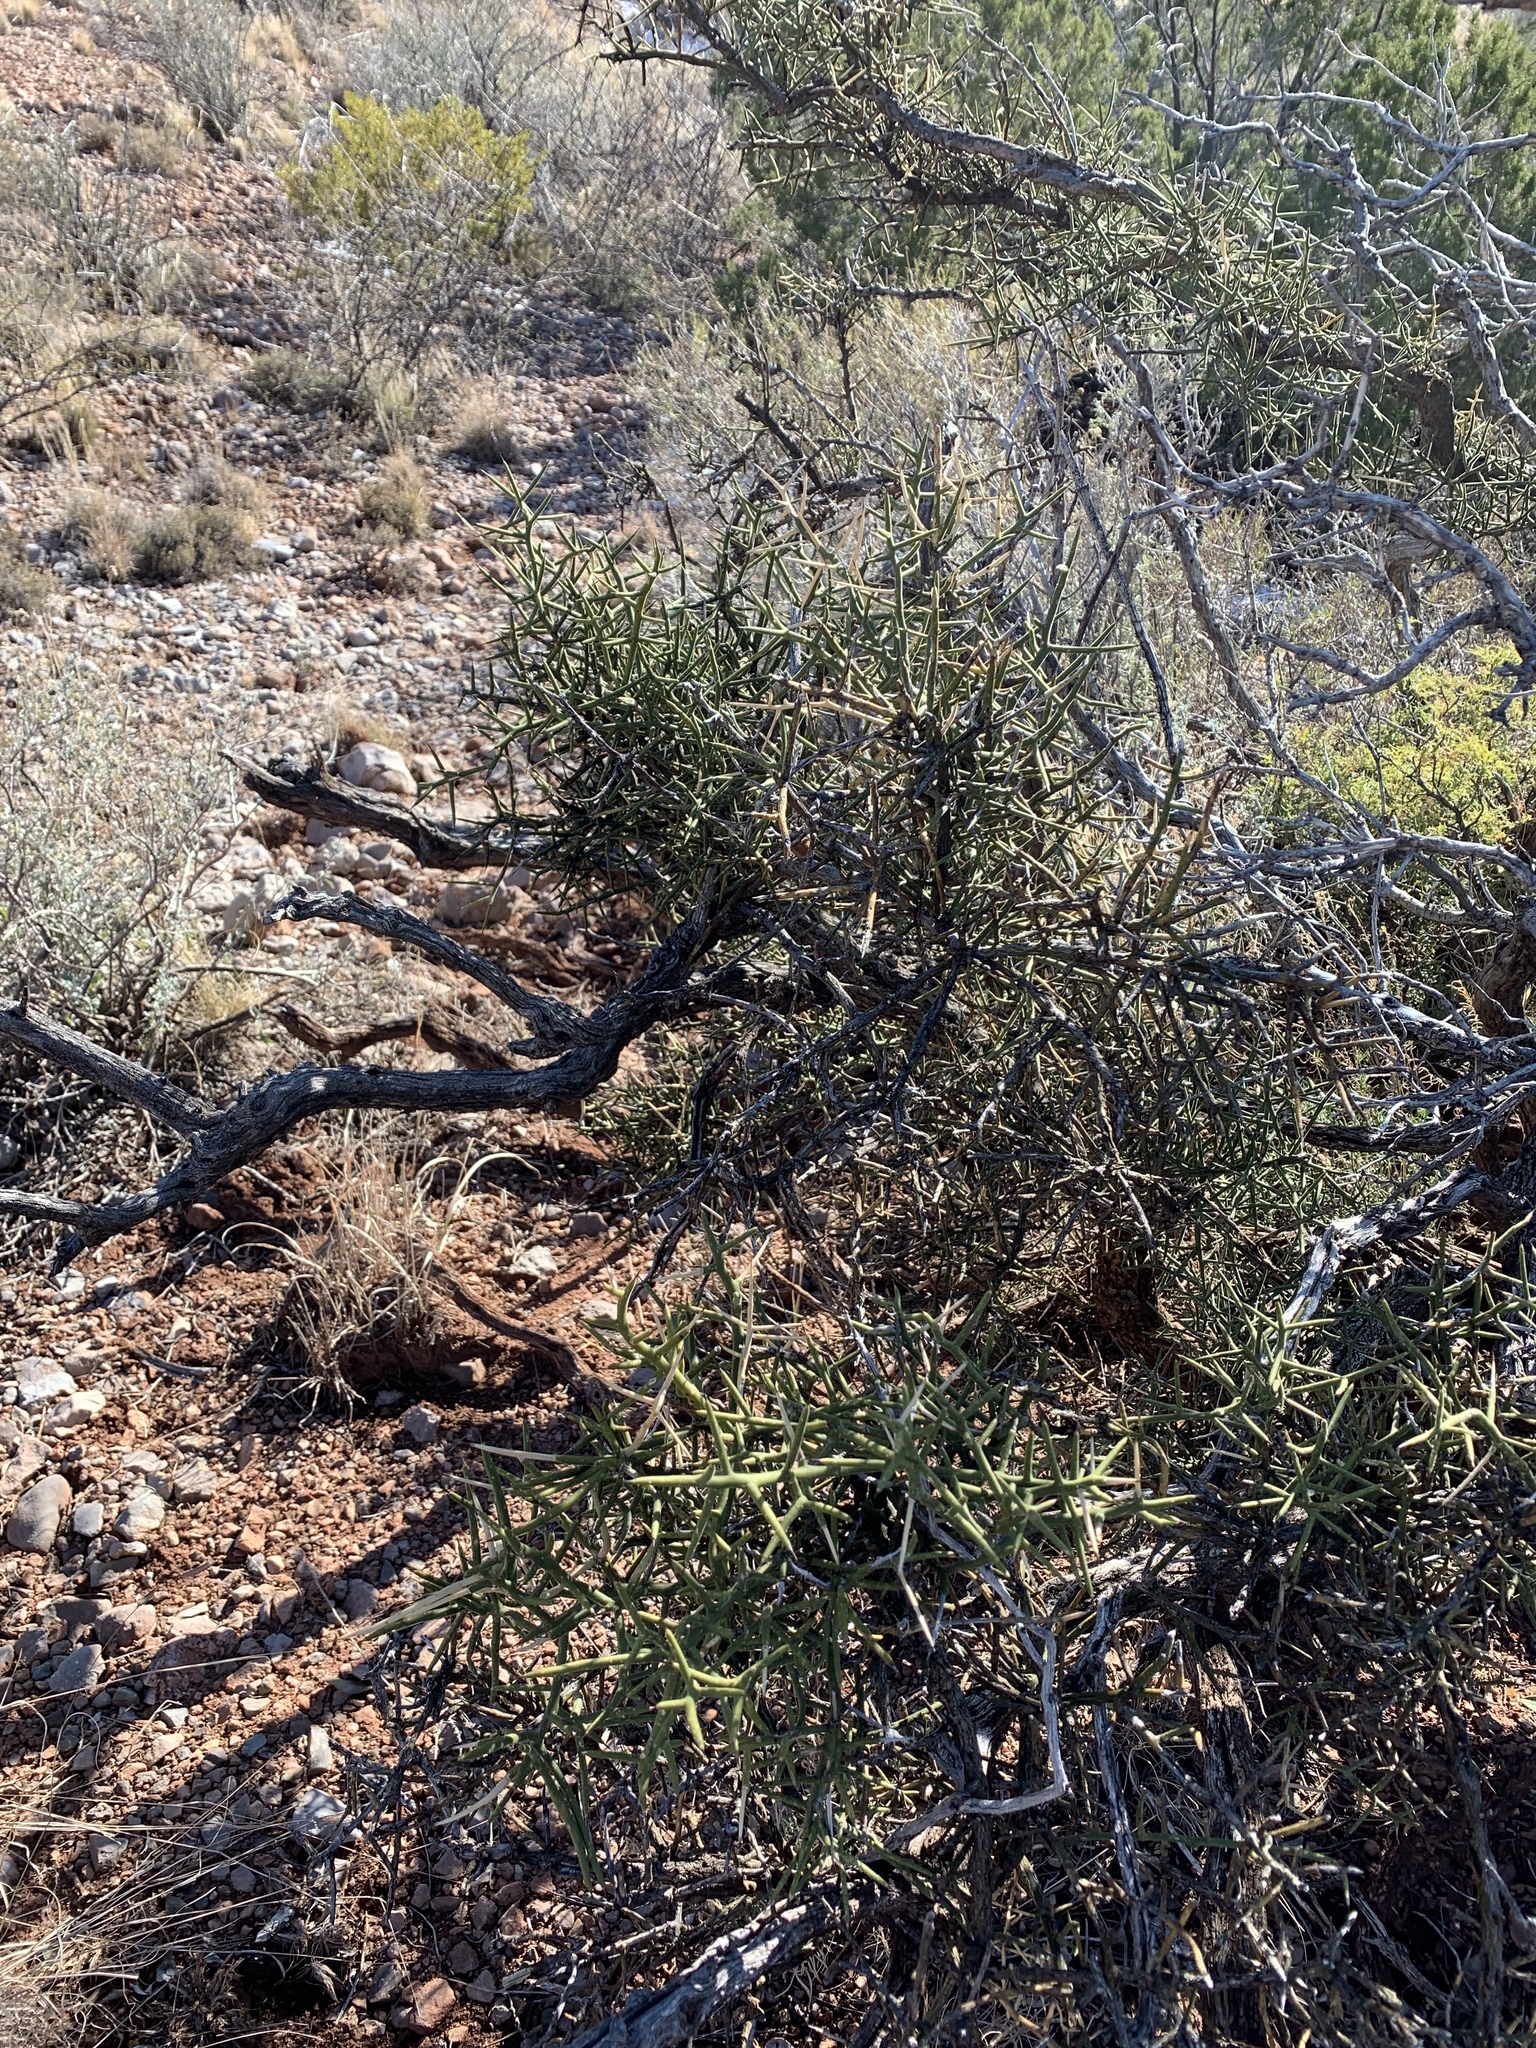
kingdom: Plantae
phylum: Tracheophyta
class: Magnoliopsida
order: Brassicales
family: Koeberliniaceae
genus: Koeberlinia
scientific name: Koeberlinia spinosa
